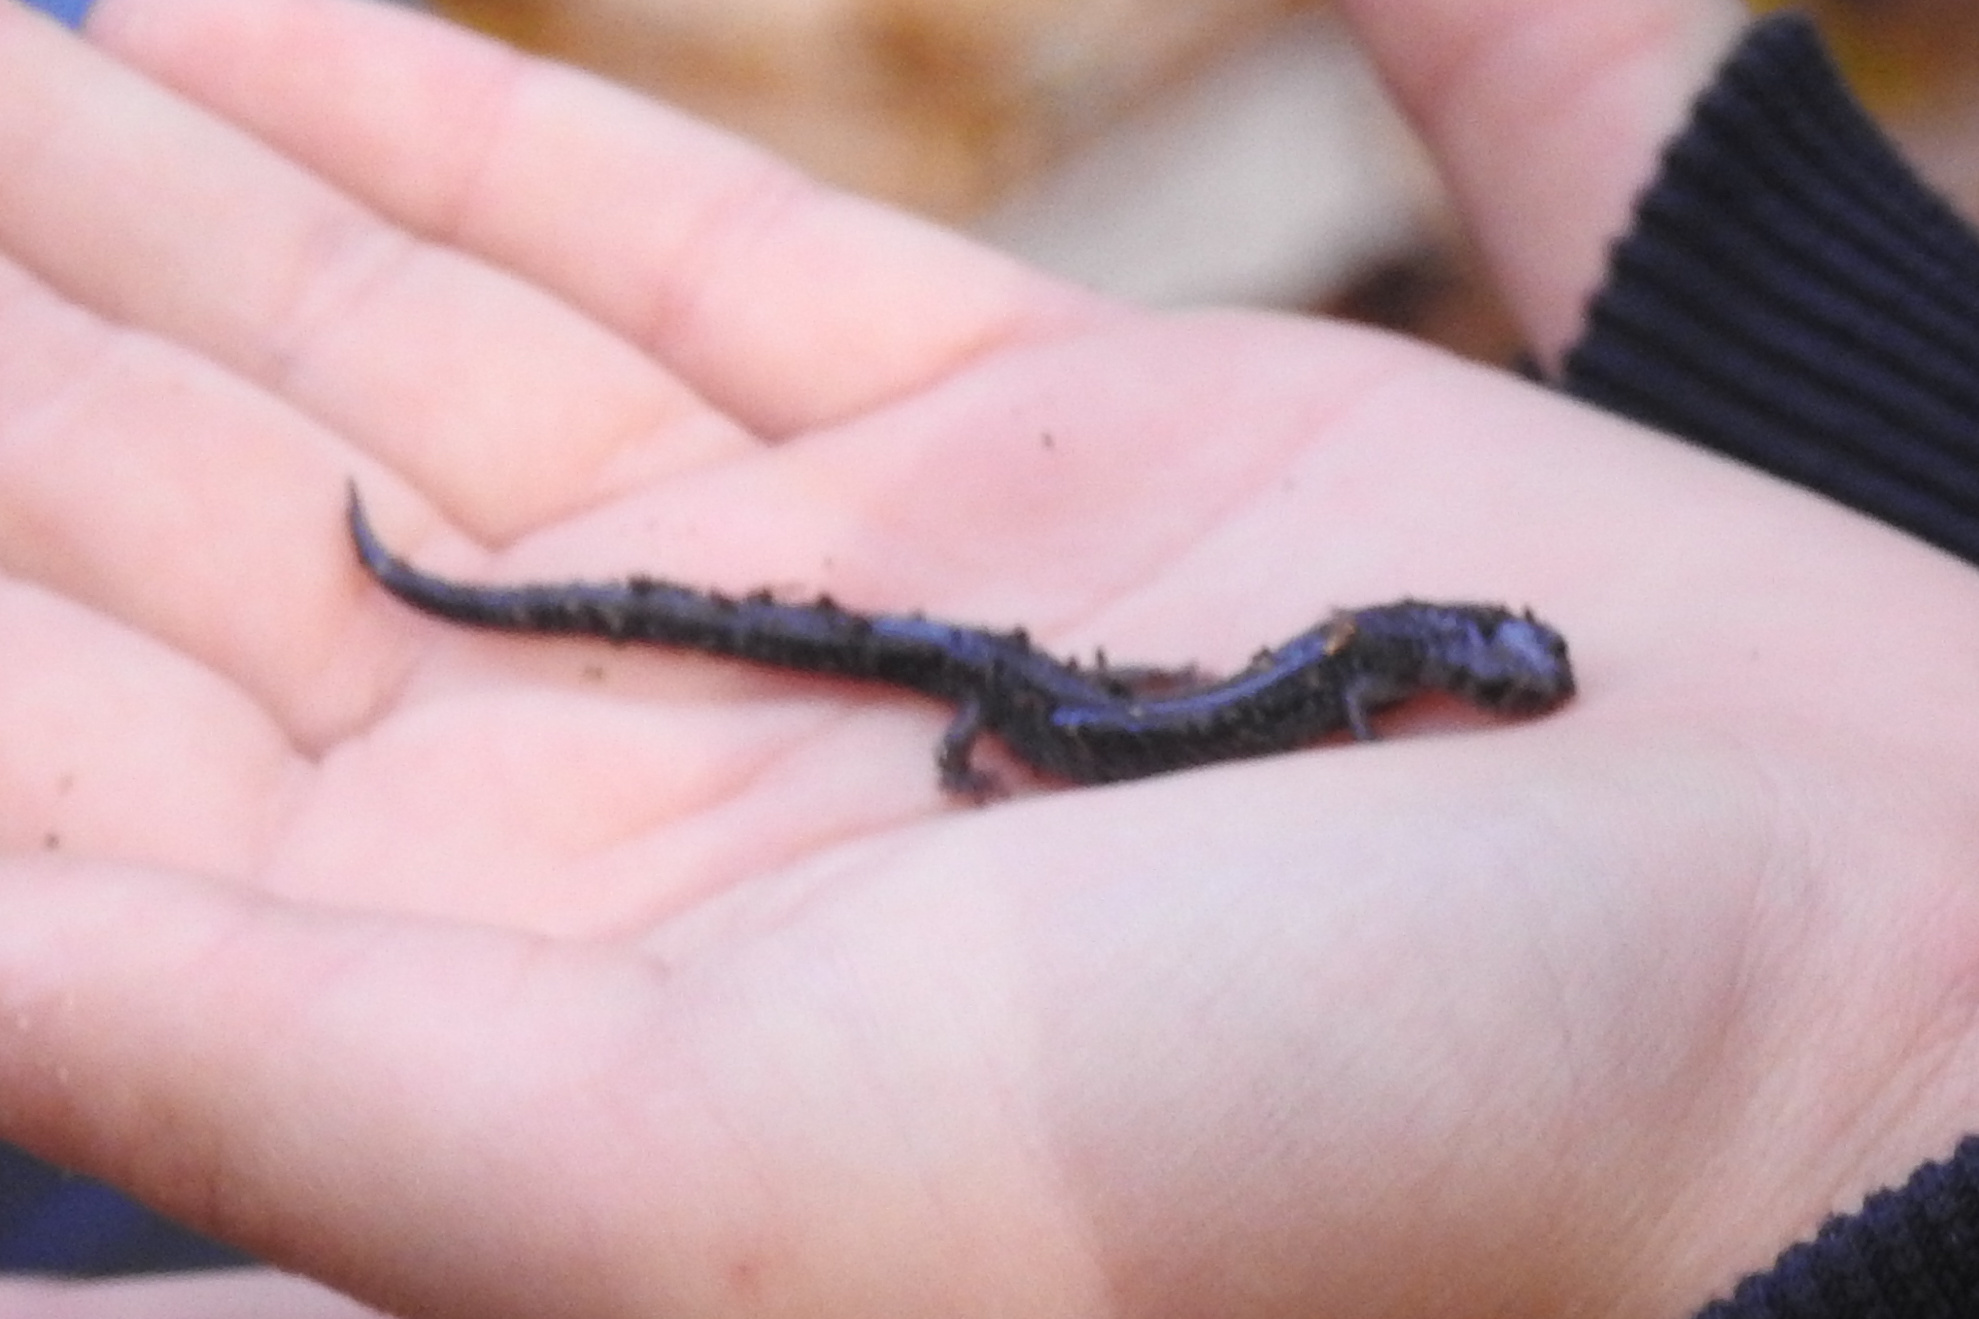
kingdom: Animalia
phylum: Chordata
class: Amphibia
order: Caudata
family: Plethodontidae
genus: Plethodon
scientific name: Plethodon cinereus
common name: Redback salamander
